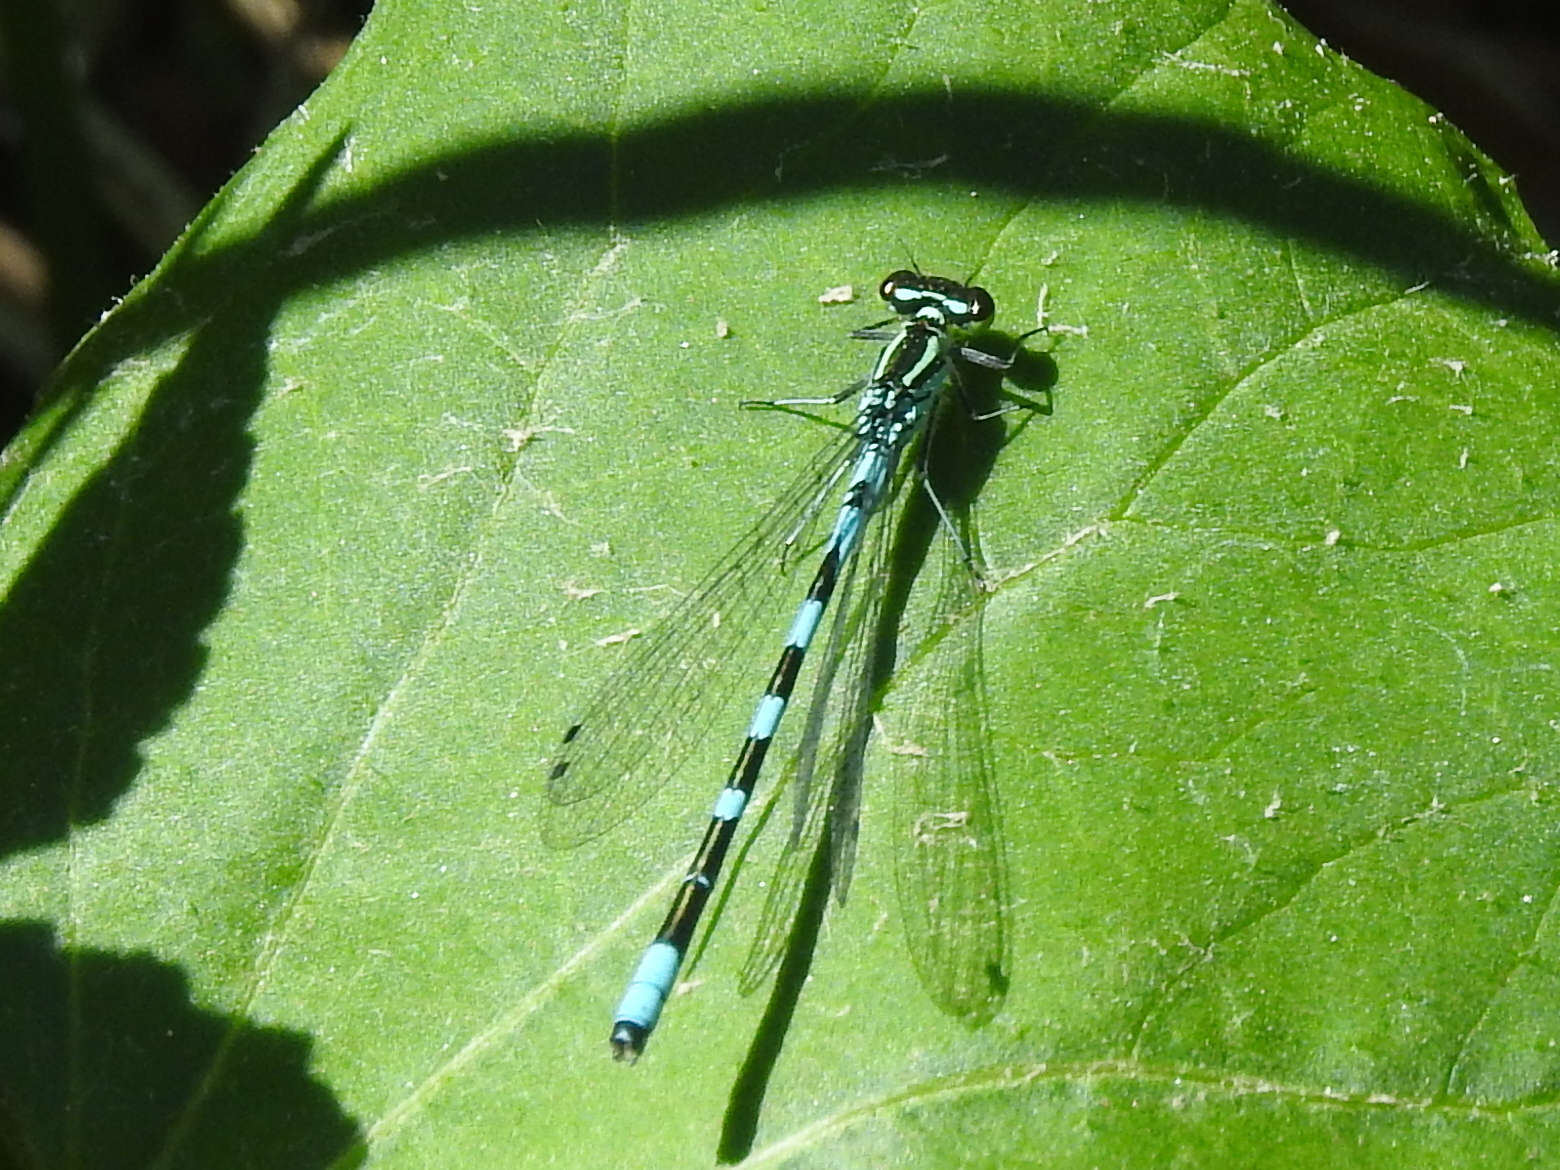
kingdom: Animalia
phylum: Arthropoda
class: Insecta
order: Odonata
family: Coenagrionidae
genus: Coenagrion
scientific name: Coenagrion hastulatum
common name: Spearhead bluet
